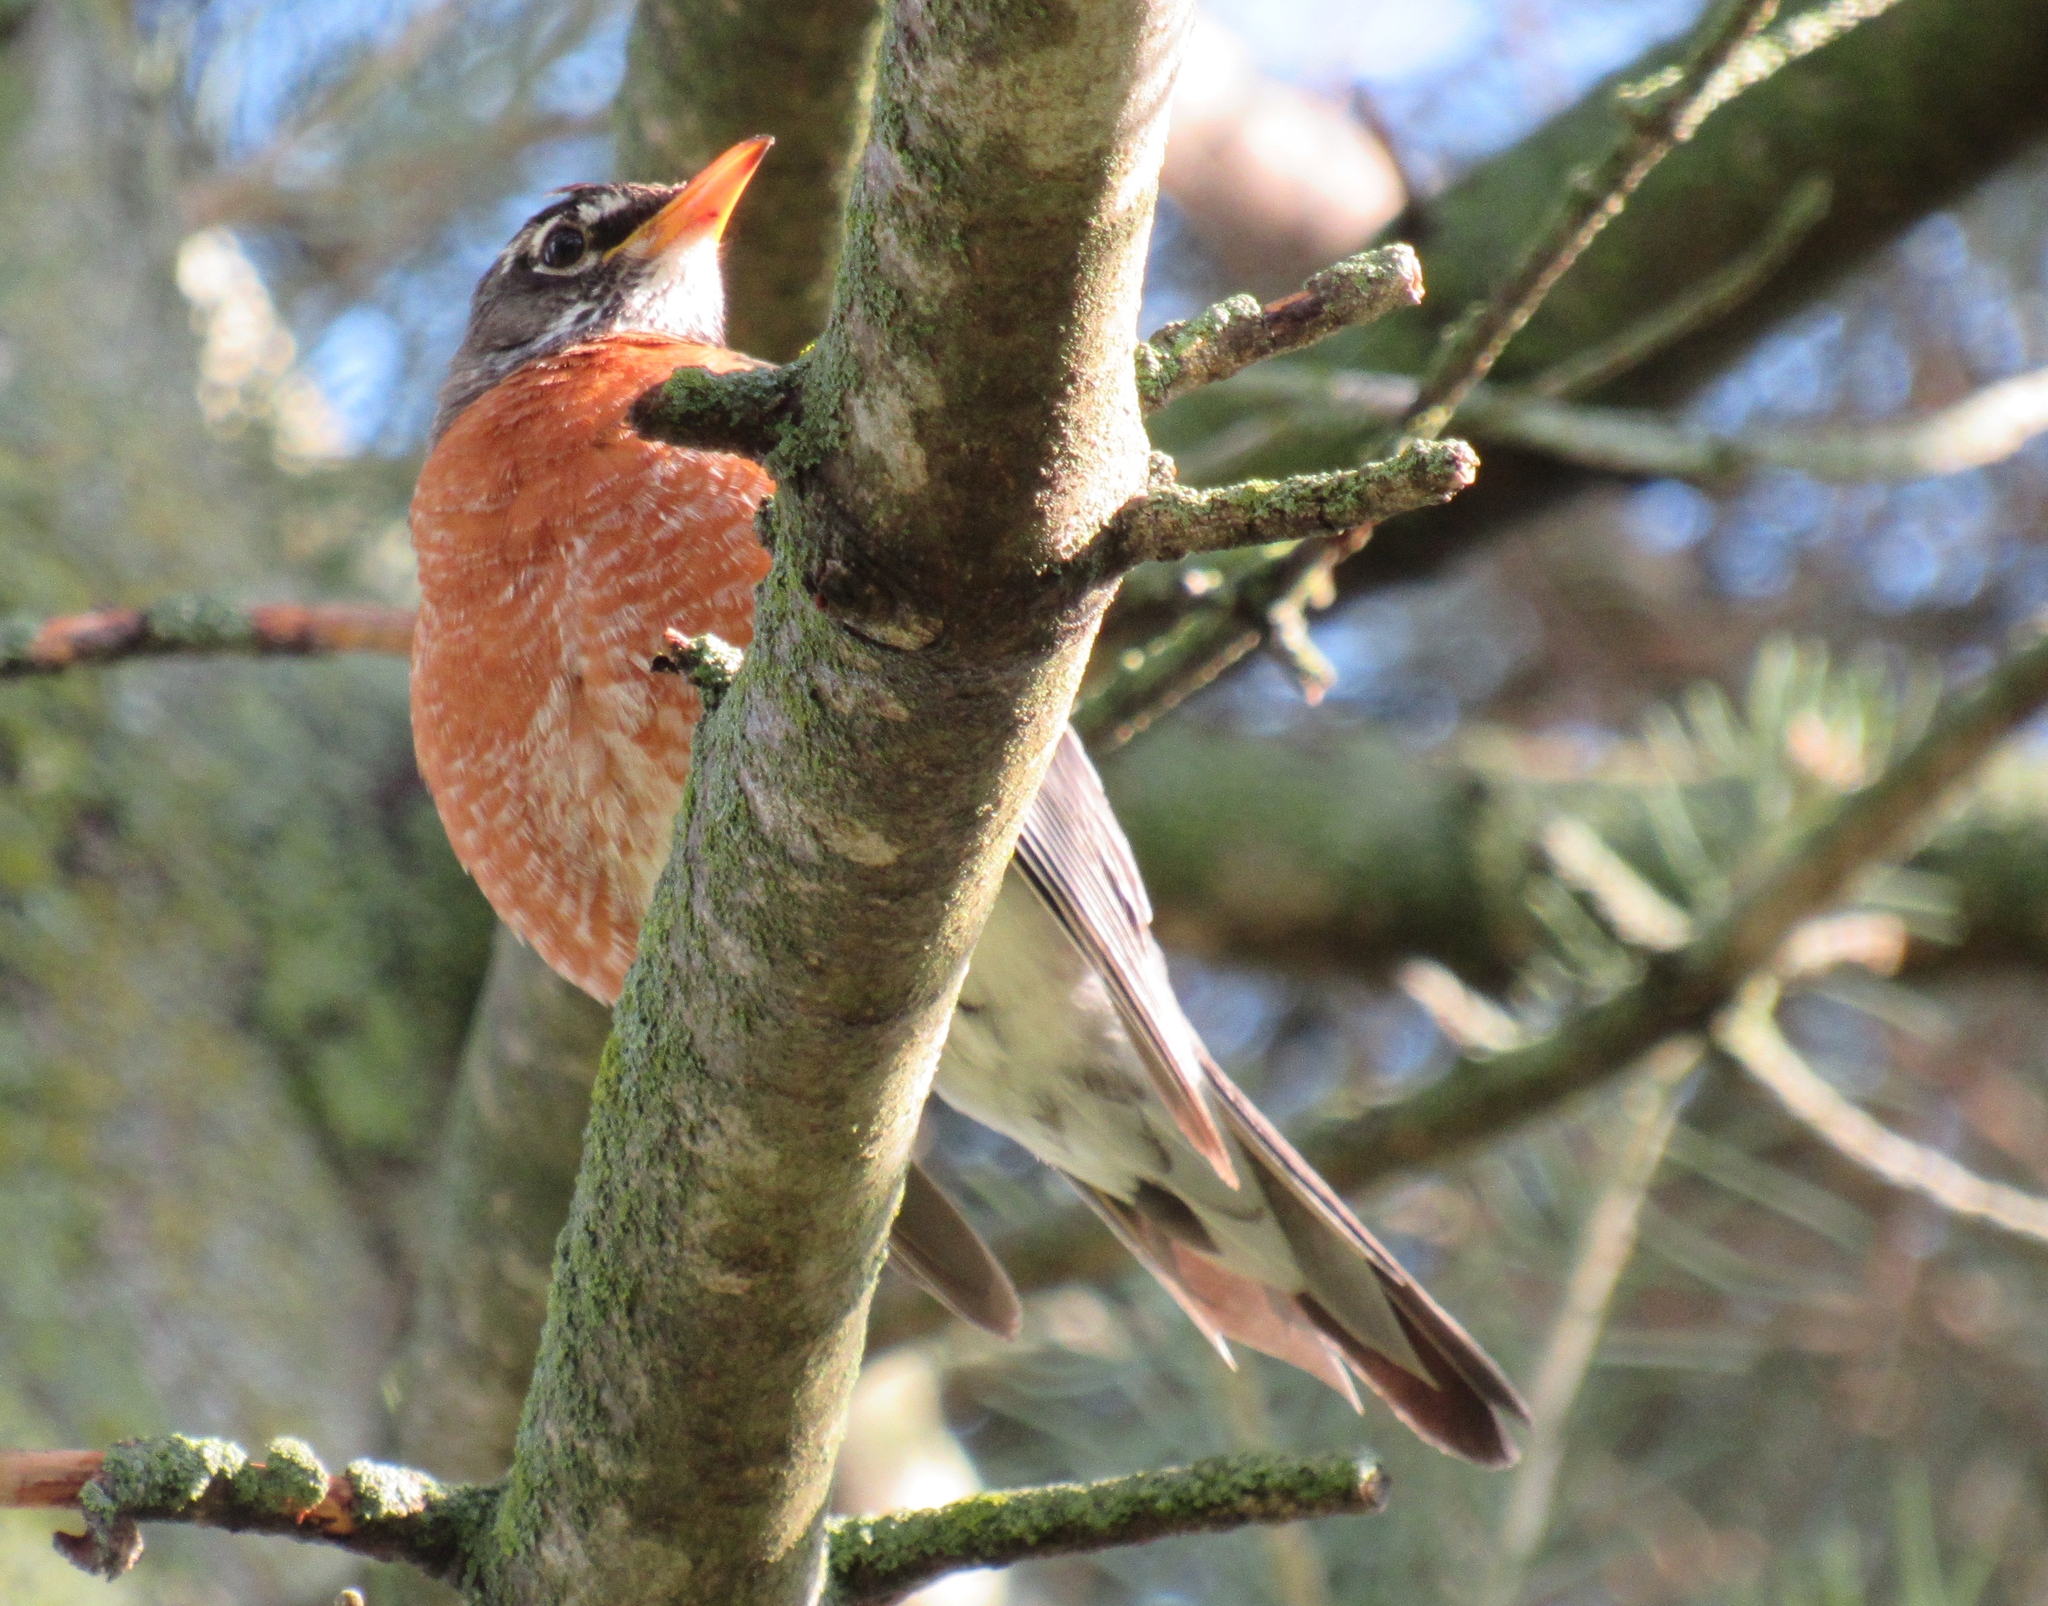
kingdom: Animalia
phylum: Chordata
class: Aves
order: Passeriformes
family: Turdidae
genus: Turdus
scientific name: Turdus migratorius
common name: American robin
